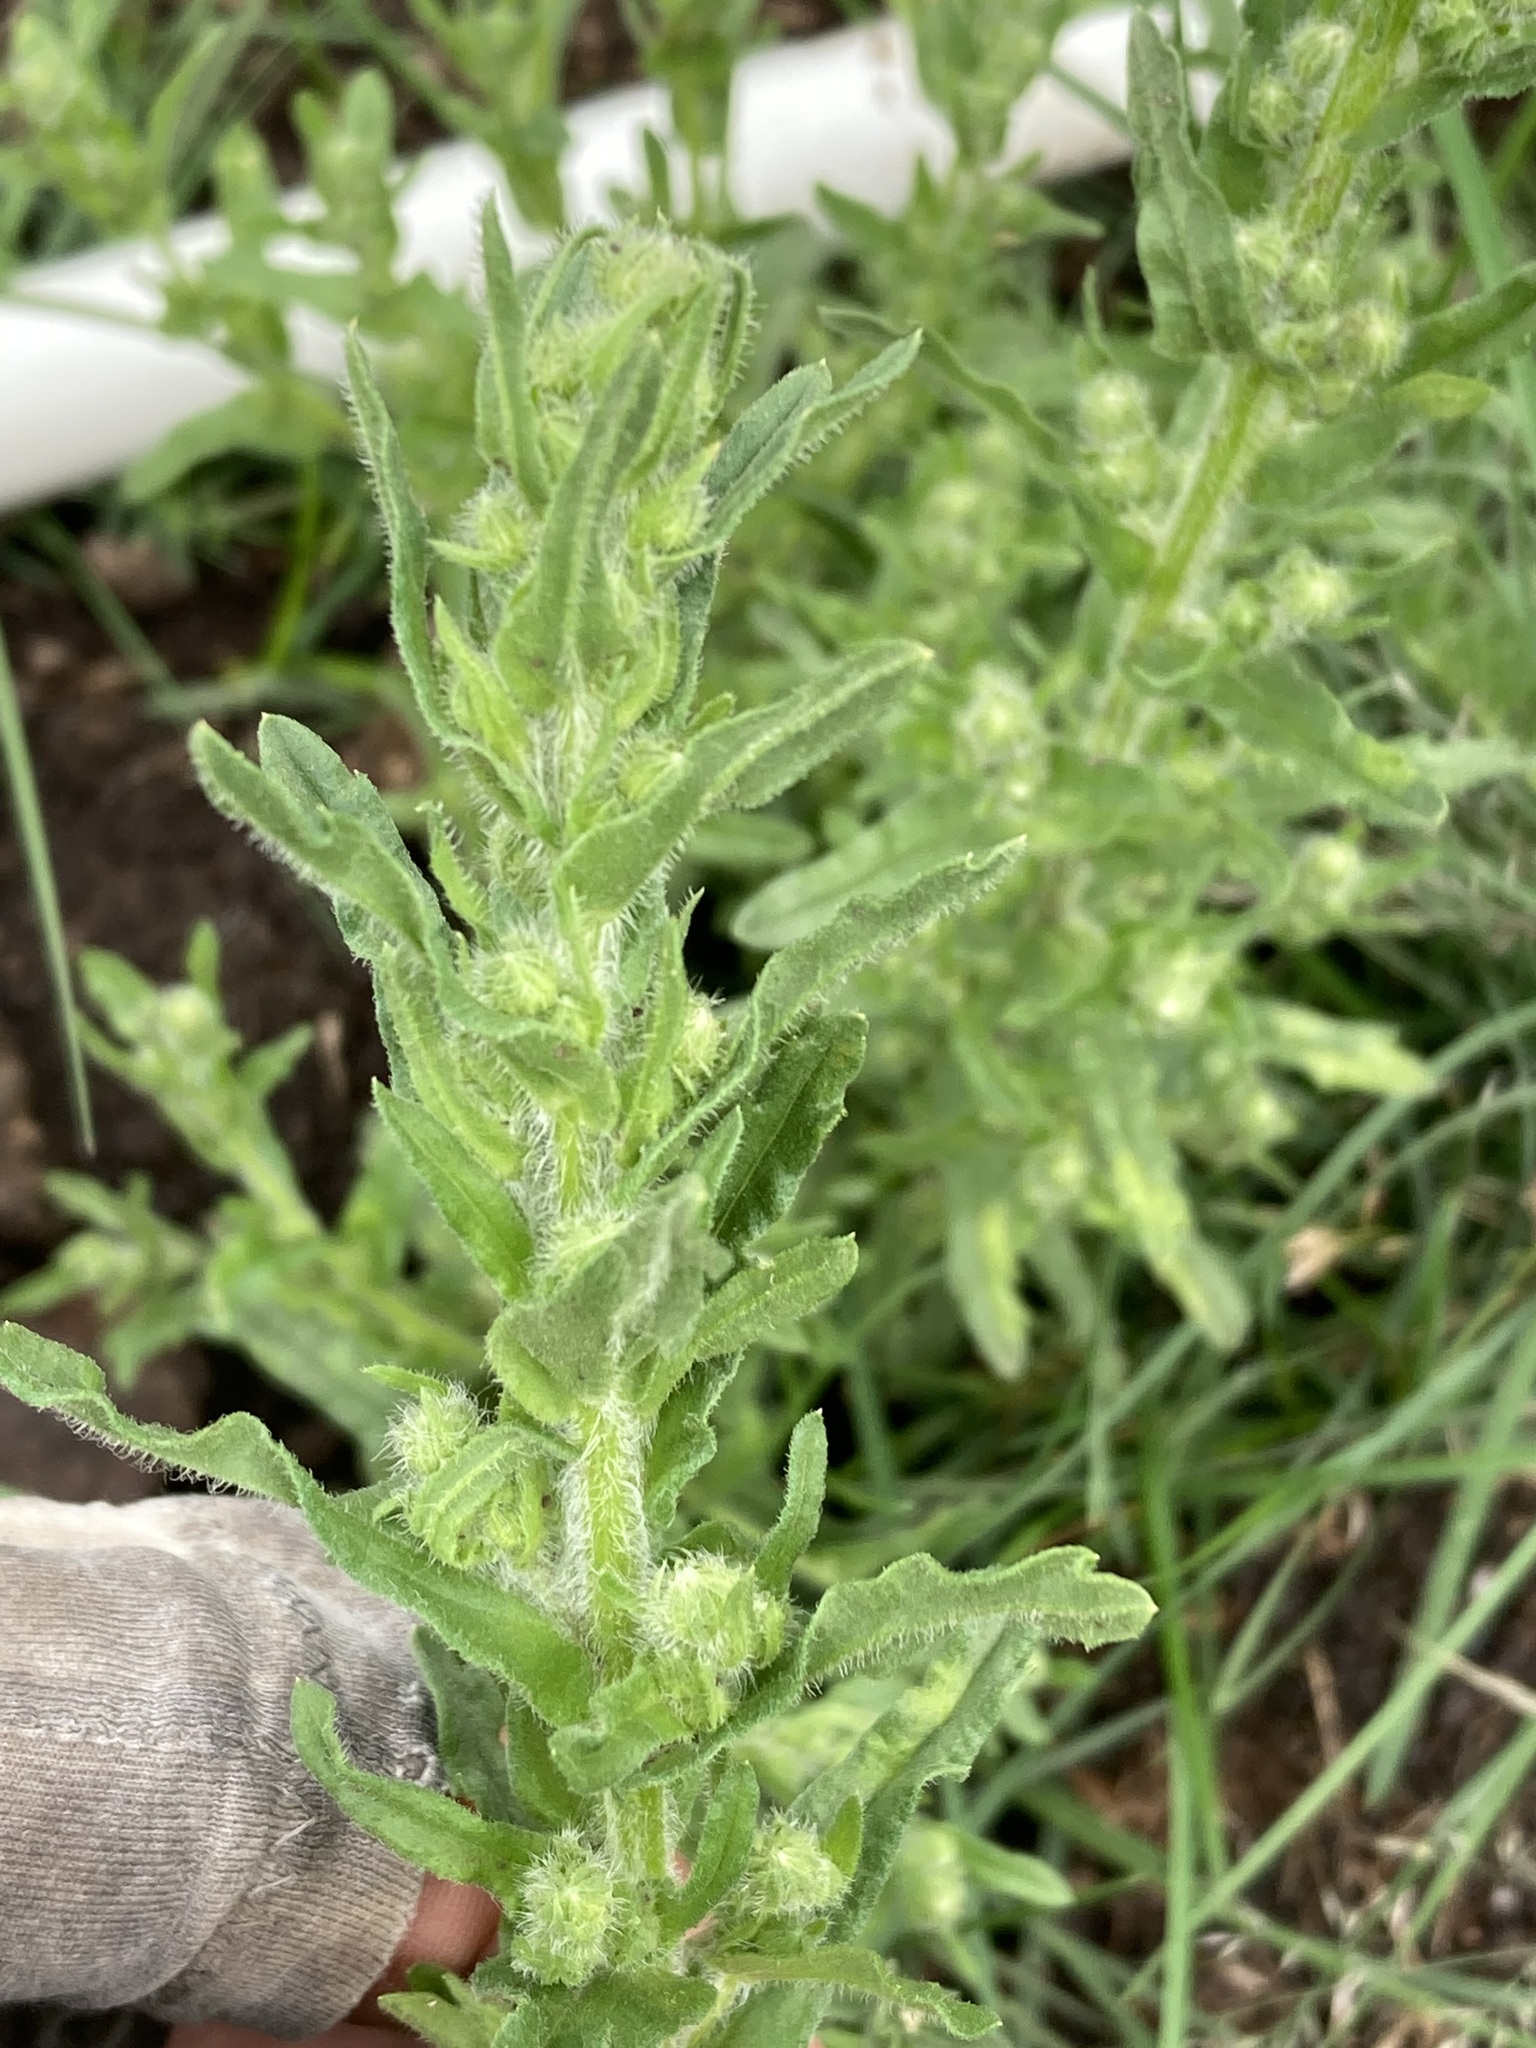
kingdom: Plantae
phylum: Tracheophyta
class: Magnoliopsida
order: Asterales
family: Asteraceae
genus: Laennecia
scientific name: Laennecia schiedeana
